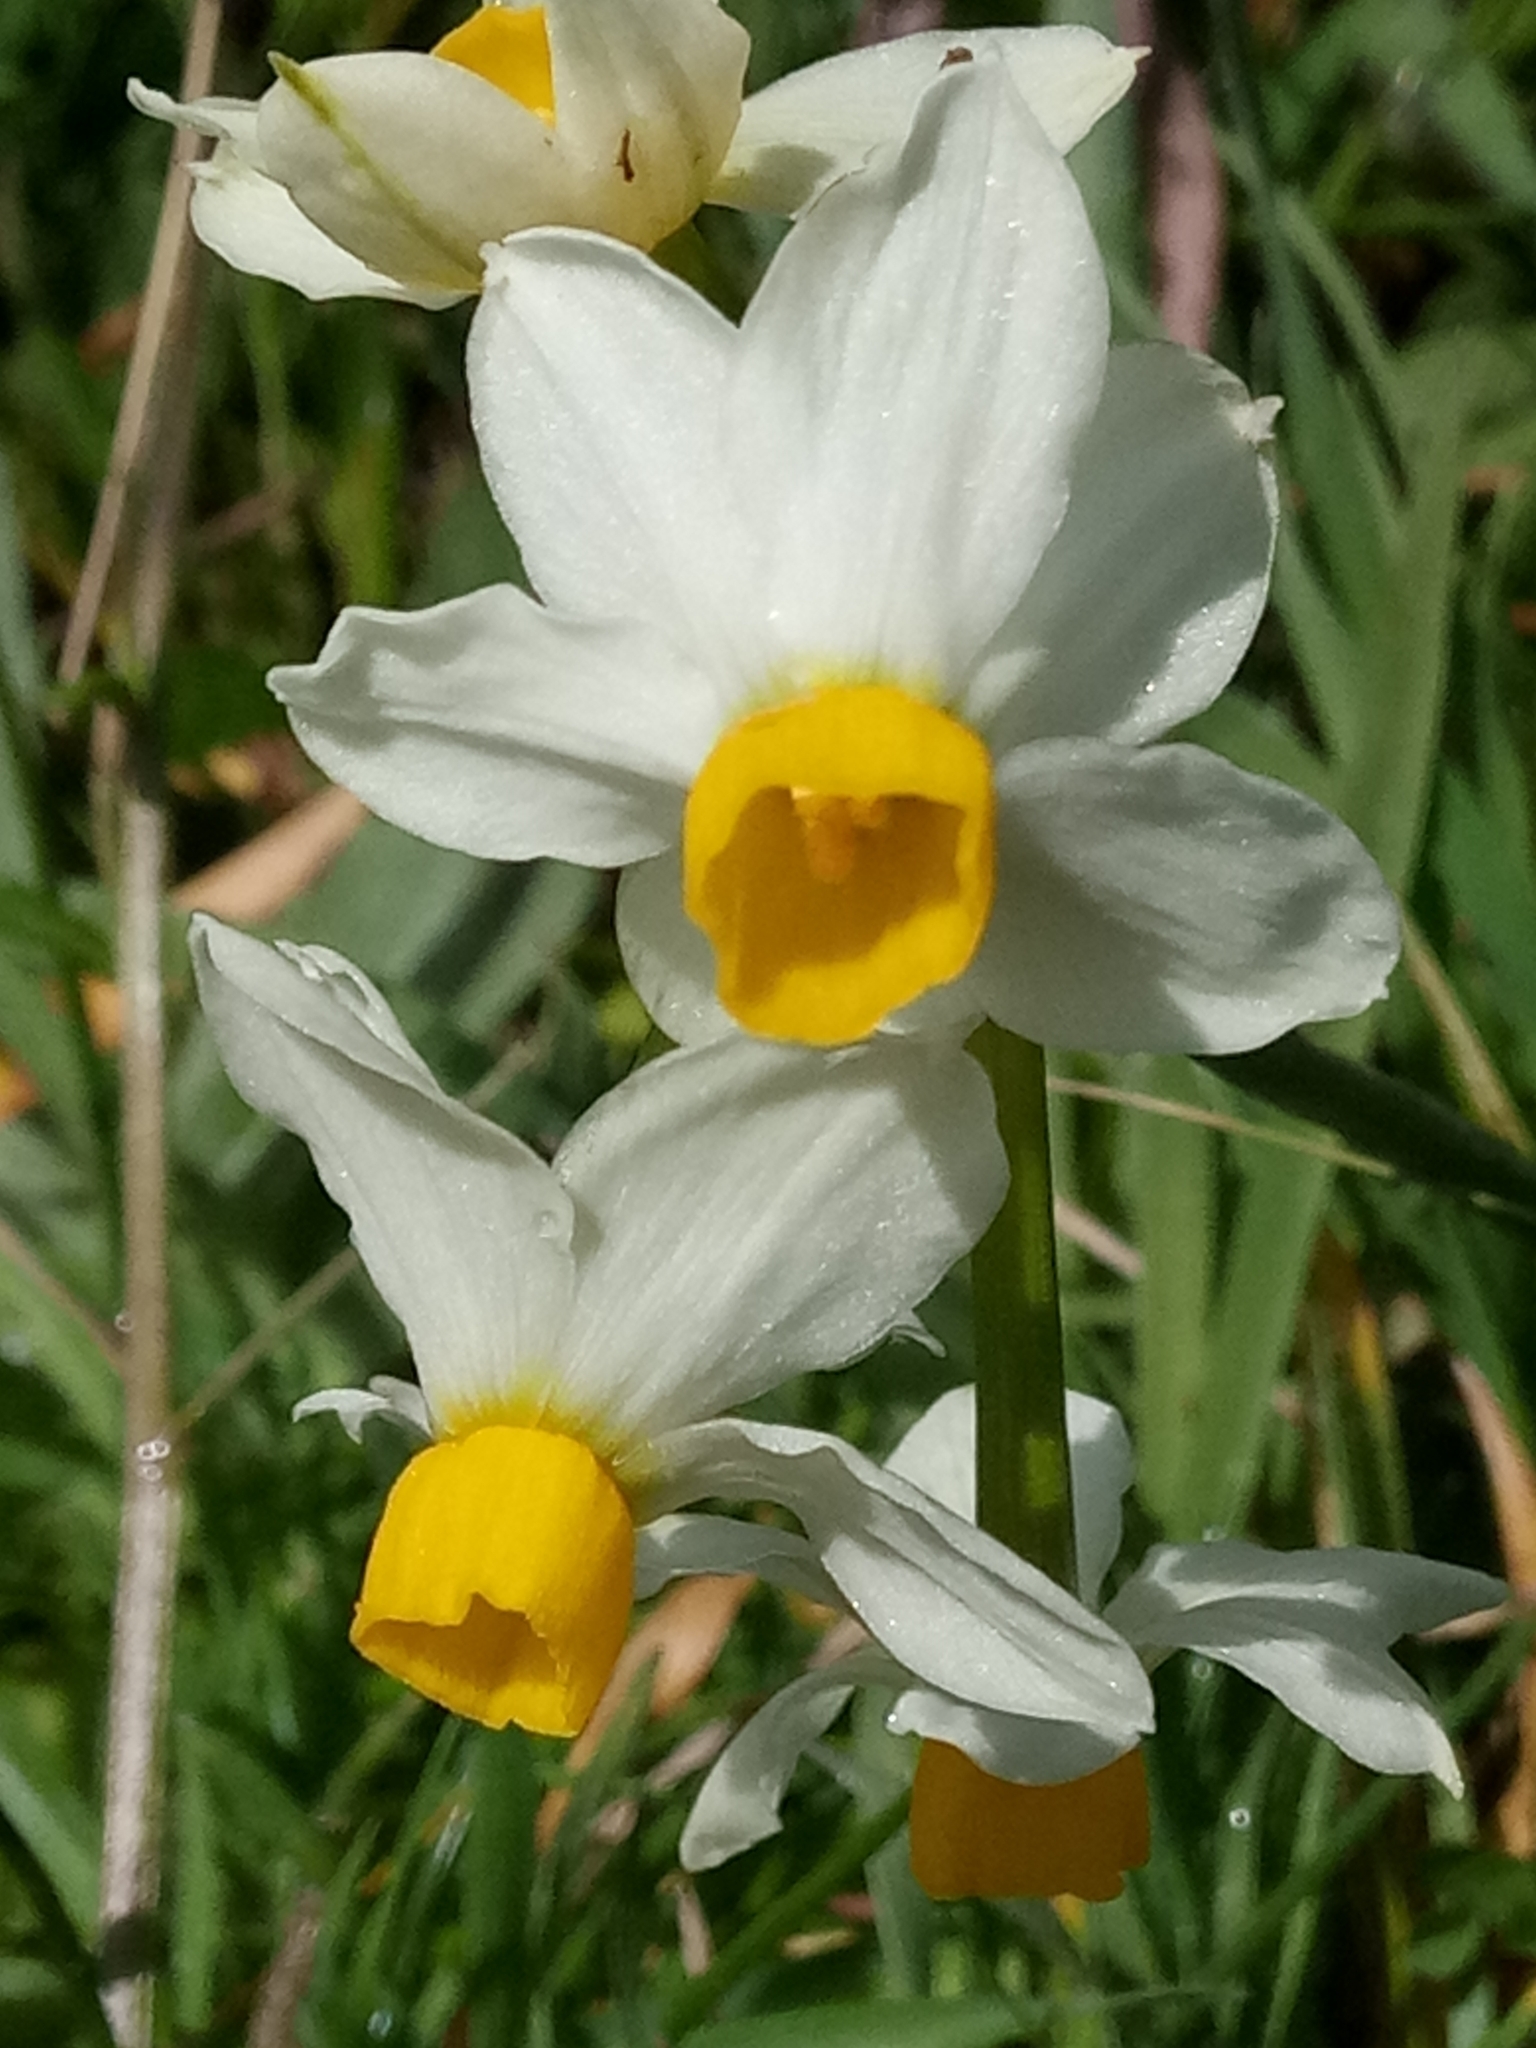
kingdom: Plantae
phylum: Tracheophyta
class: Liliopsida
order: Asparagales
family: Amaryllidaceae
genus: Narcissus
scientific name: Narcissus tazetta
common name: Bunch-flowered daffodil
